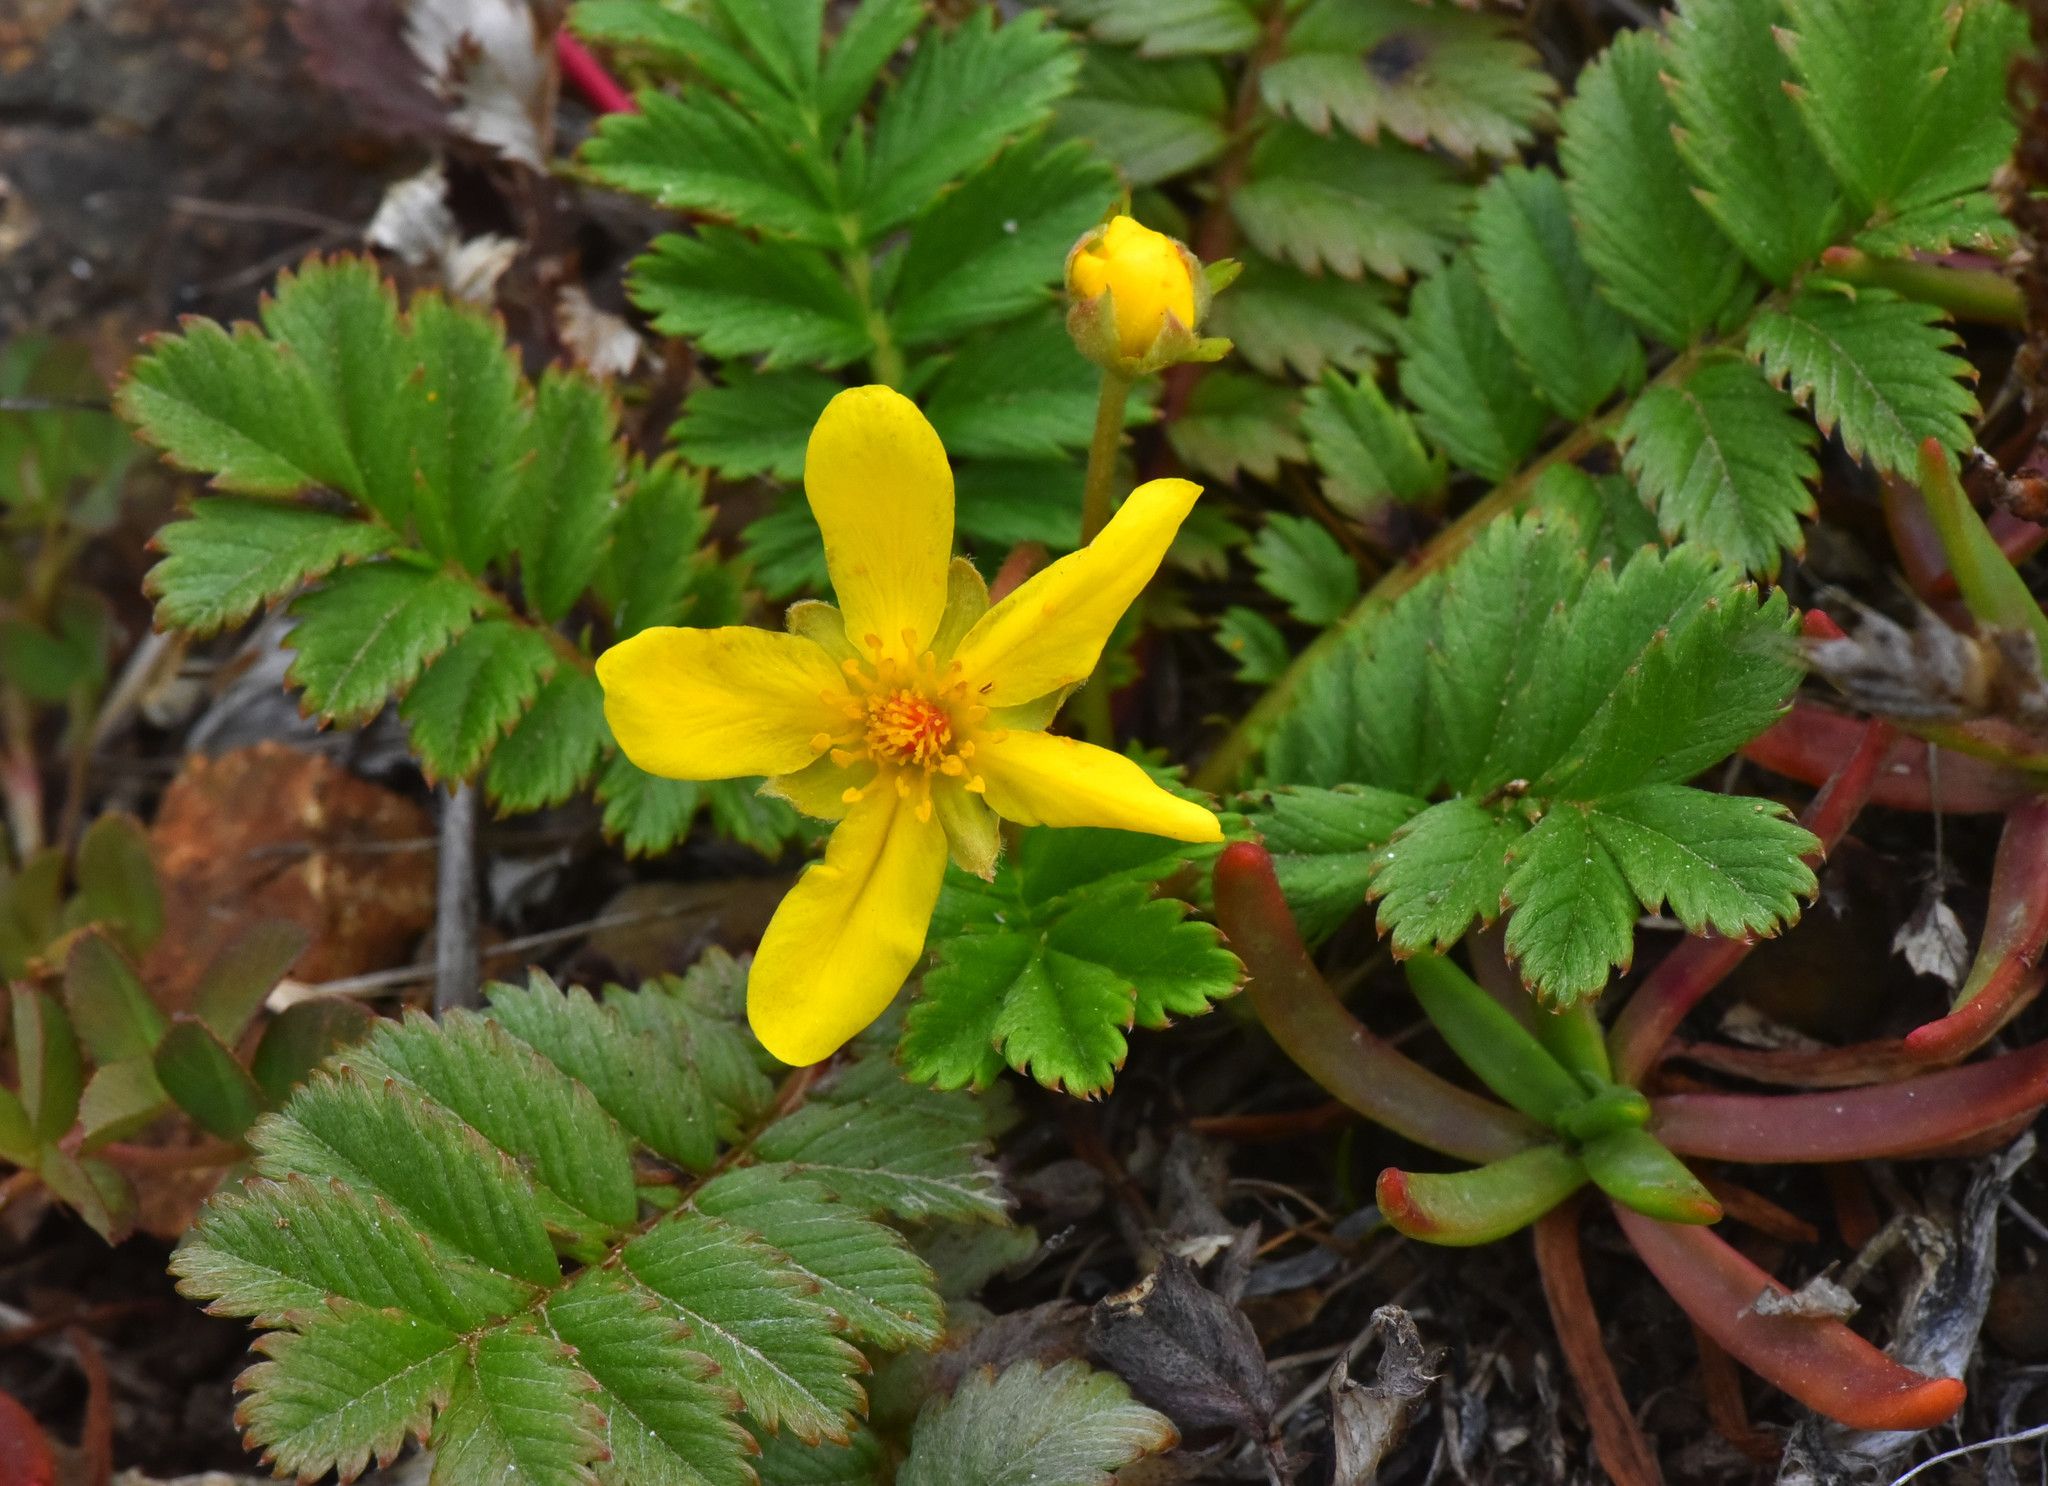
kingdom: Plantae
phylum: Tracheophyta
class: Magnoliopsida
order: Rosales
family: Rosaceae
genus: Argentina
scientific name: Argentina anserina
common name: Common silverweed
